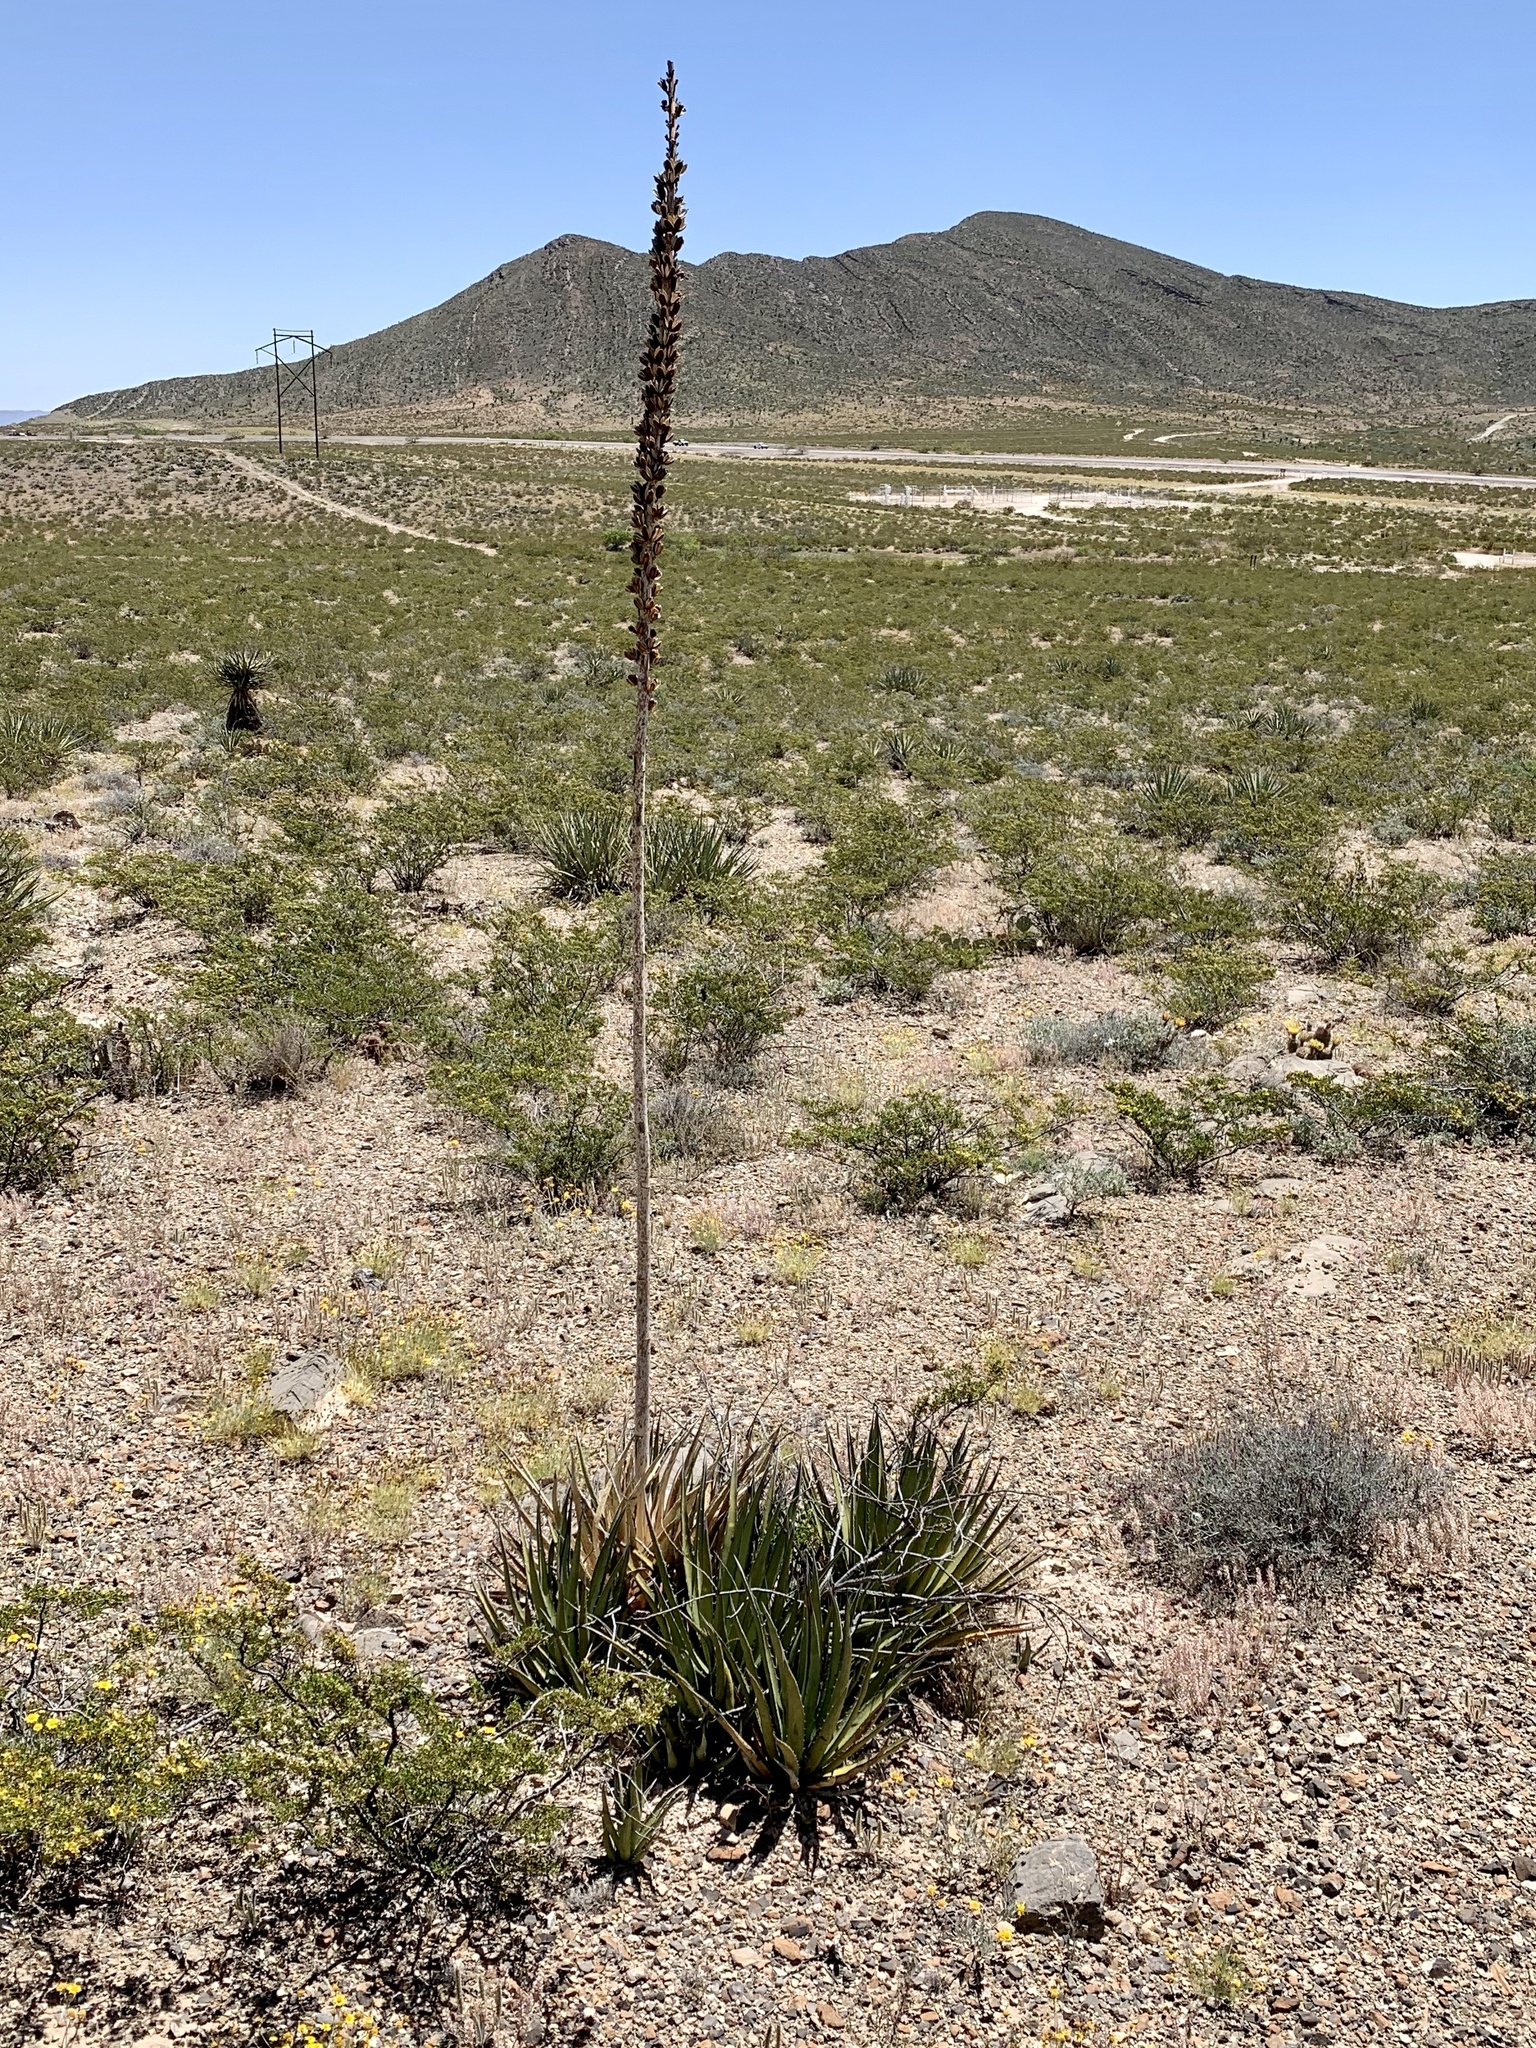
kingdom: Plantae
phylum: Tracheophyta
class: Liliopsida
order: Asparagales
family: Asparagaceae
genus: Agave
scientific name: Agave lechuguilla
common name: Lecheguilla agave
